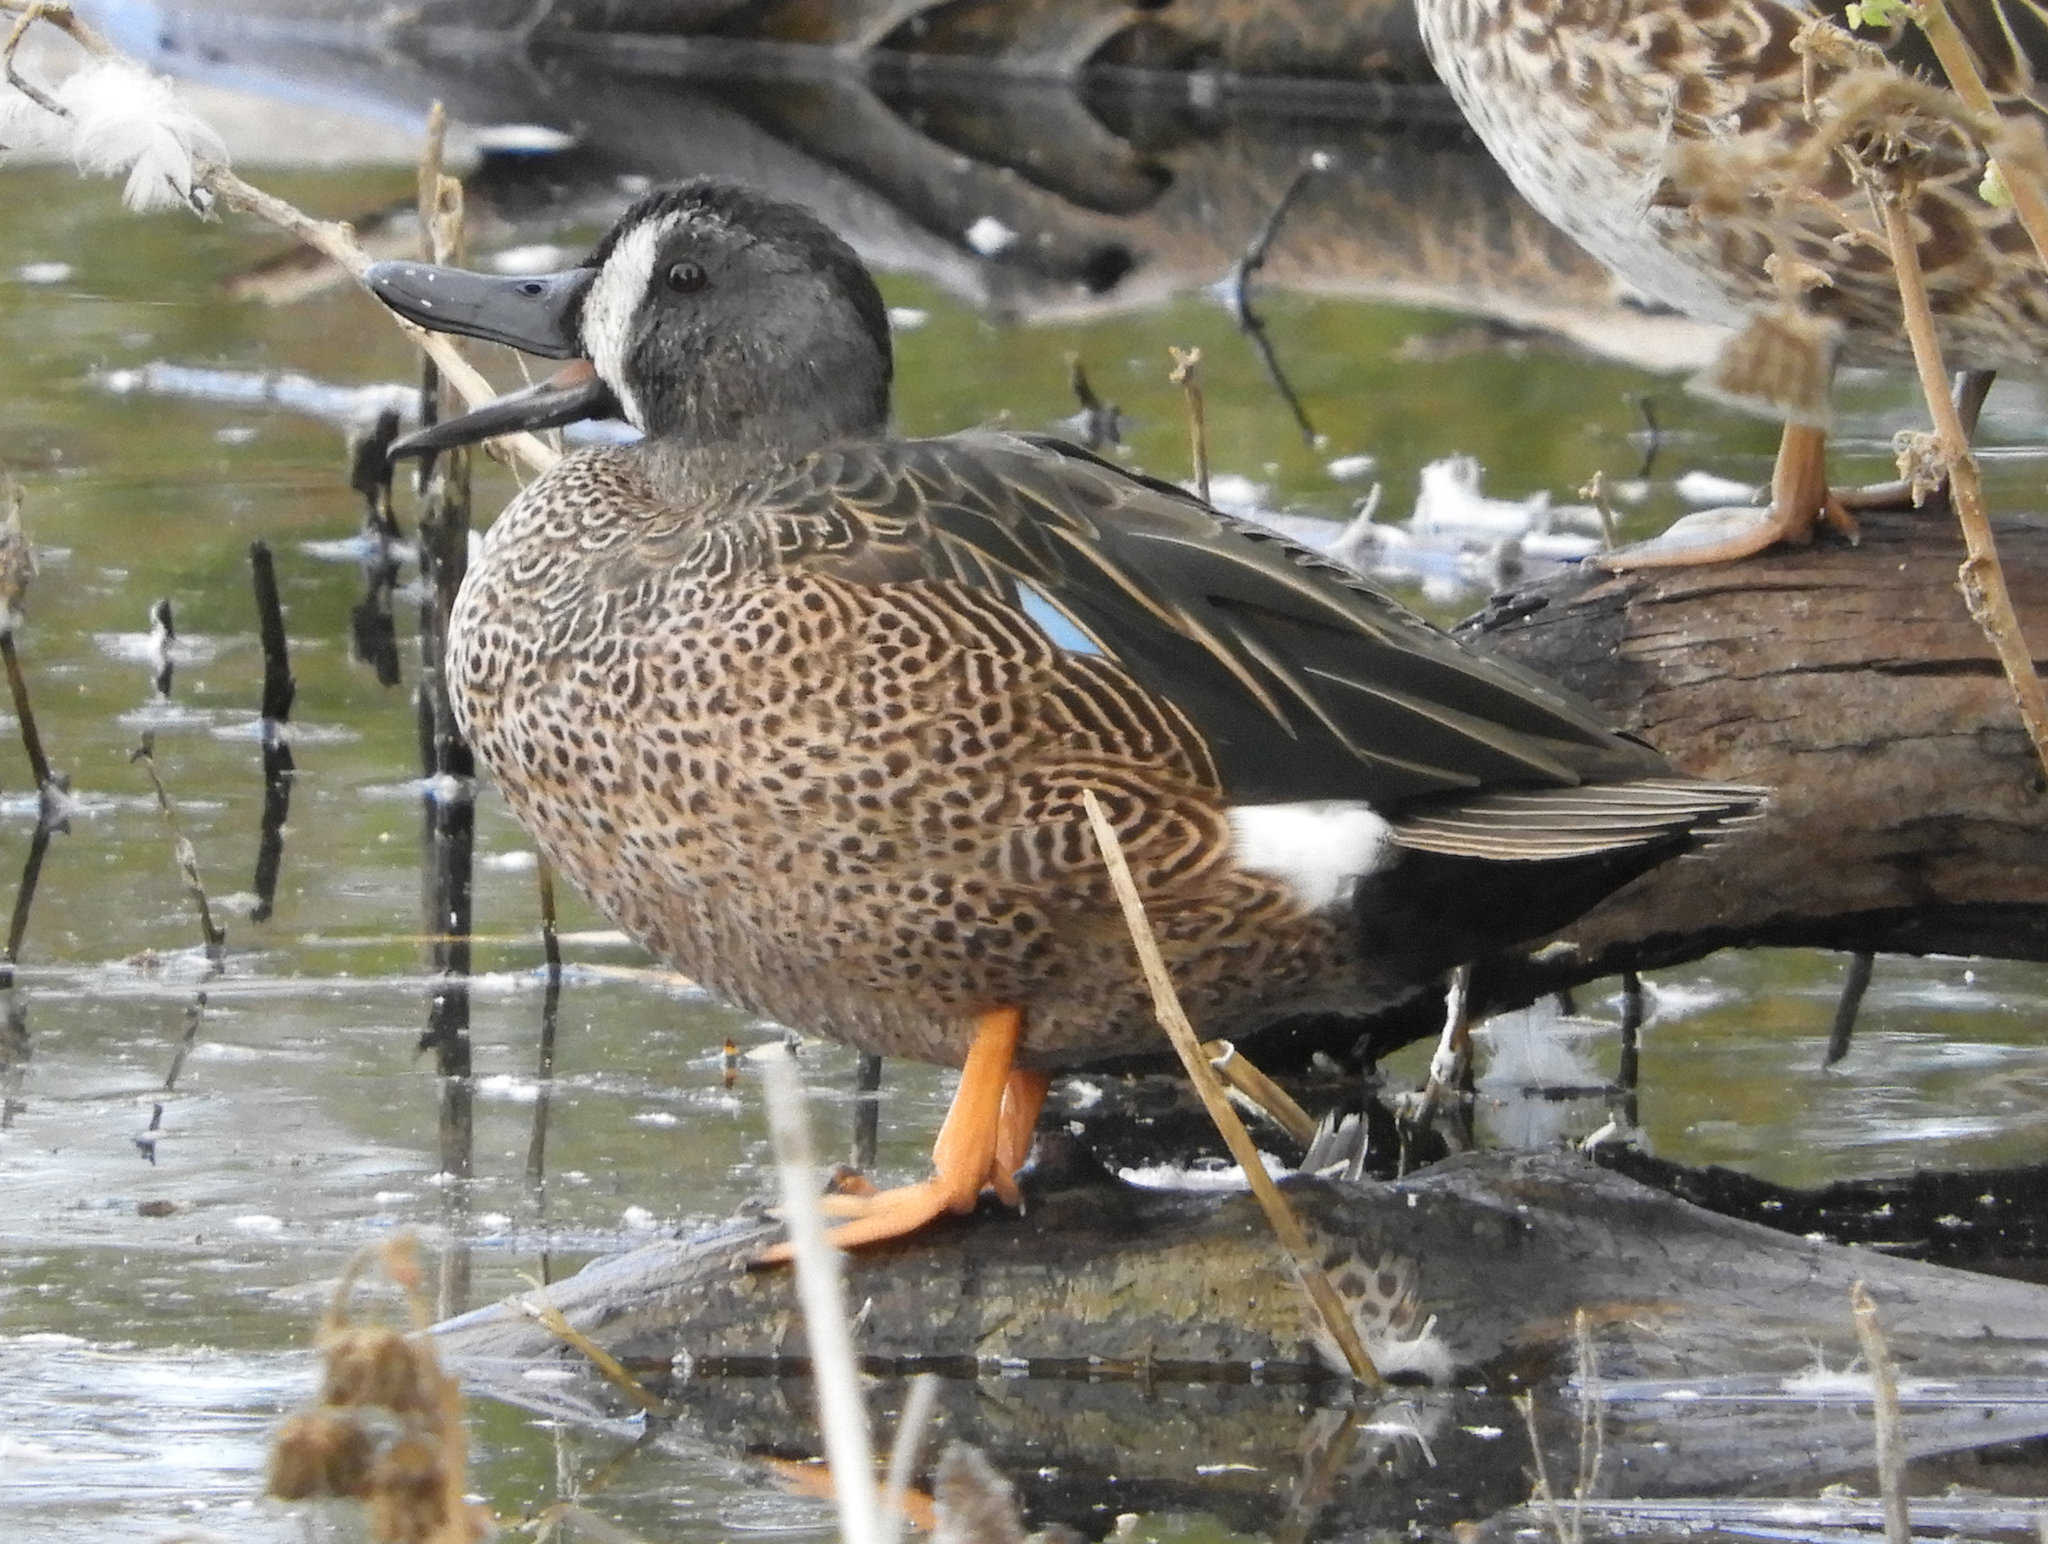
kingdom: Animalia
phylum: Chordata
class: Aves
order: Anseriformes
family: Anatidae
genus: Spatula
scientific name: Spatula discors
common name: Blue-winged teal
